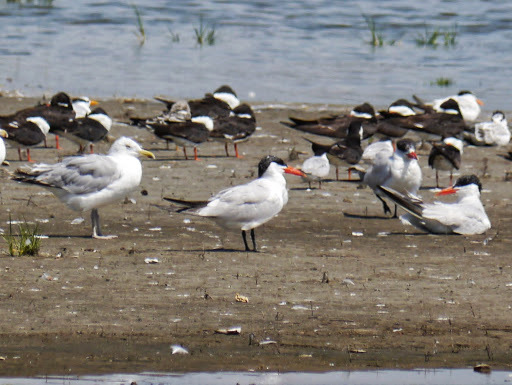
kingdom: Animalia
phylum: Chordata
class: Aves
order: Charadriiformes
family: Laridae
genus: Hydroprogne
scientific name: Hydroprogne caspia
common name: Caspian tern
